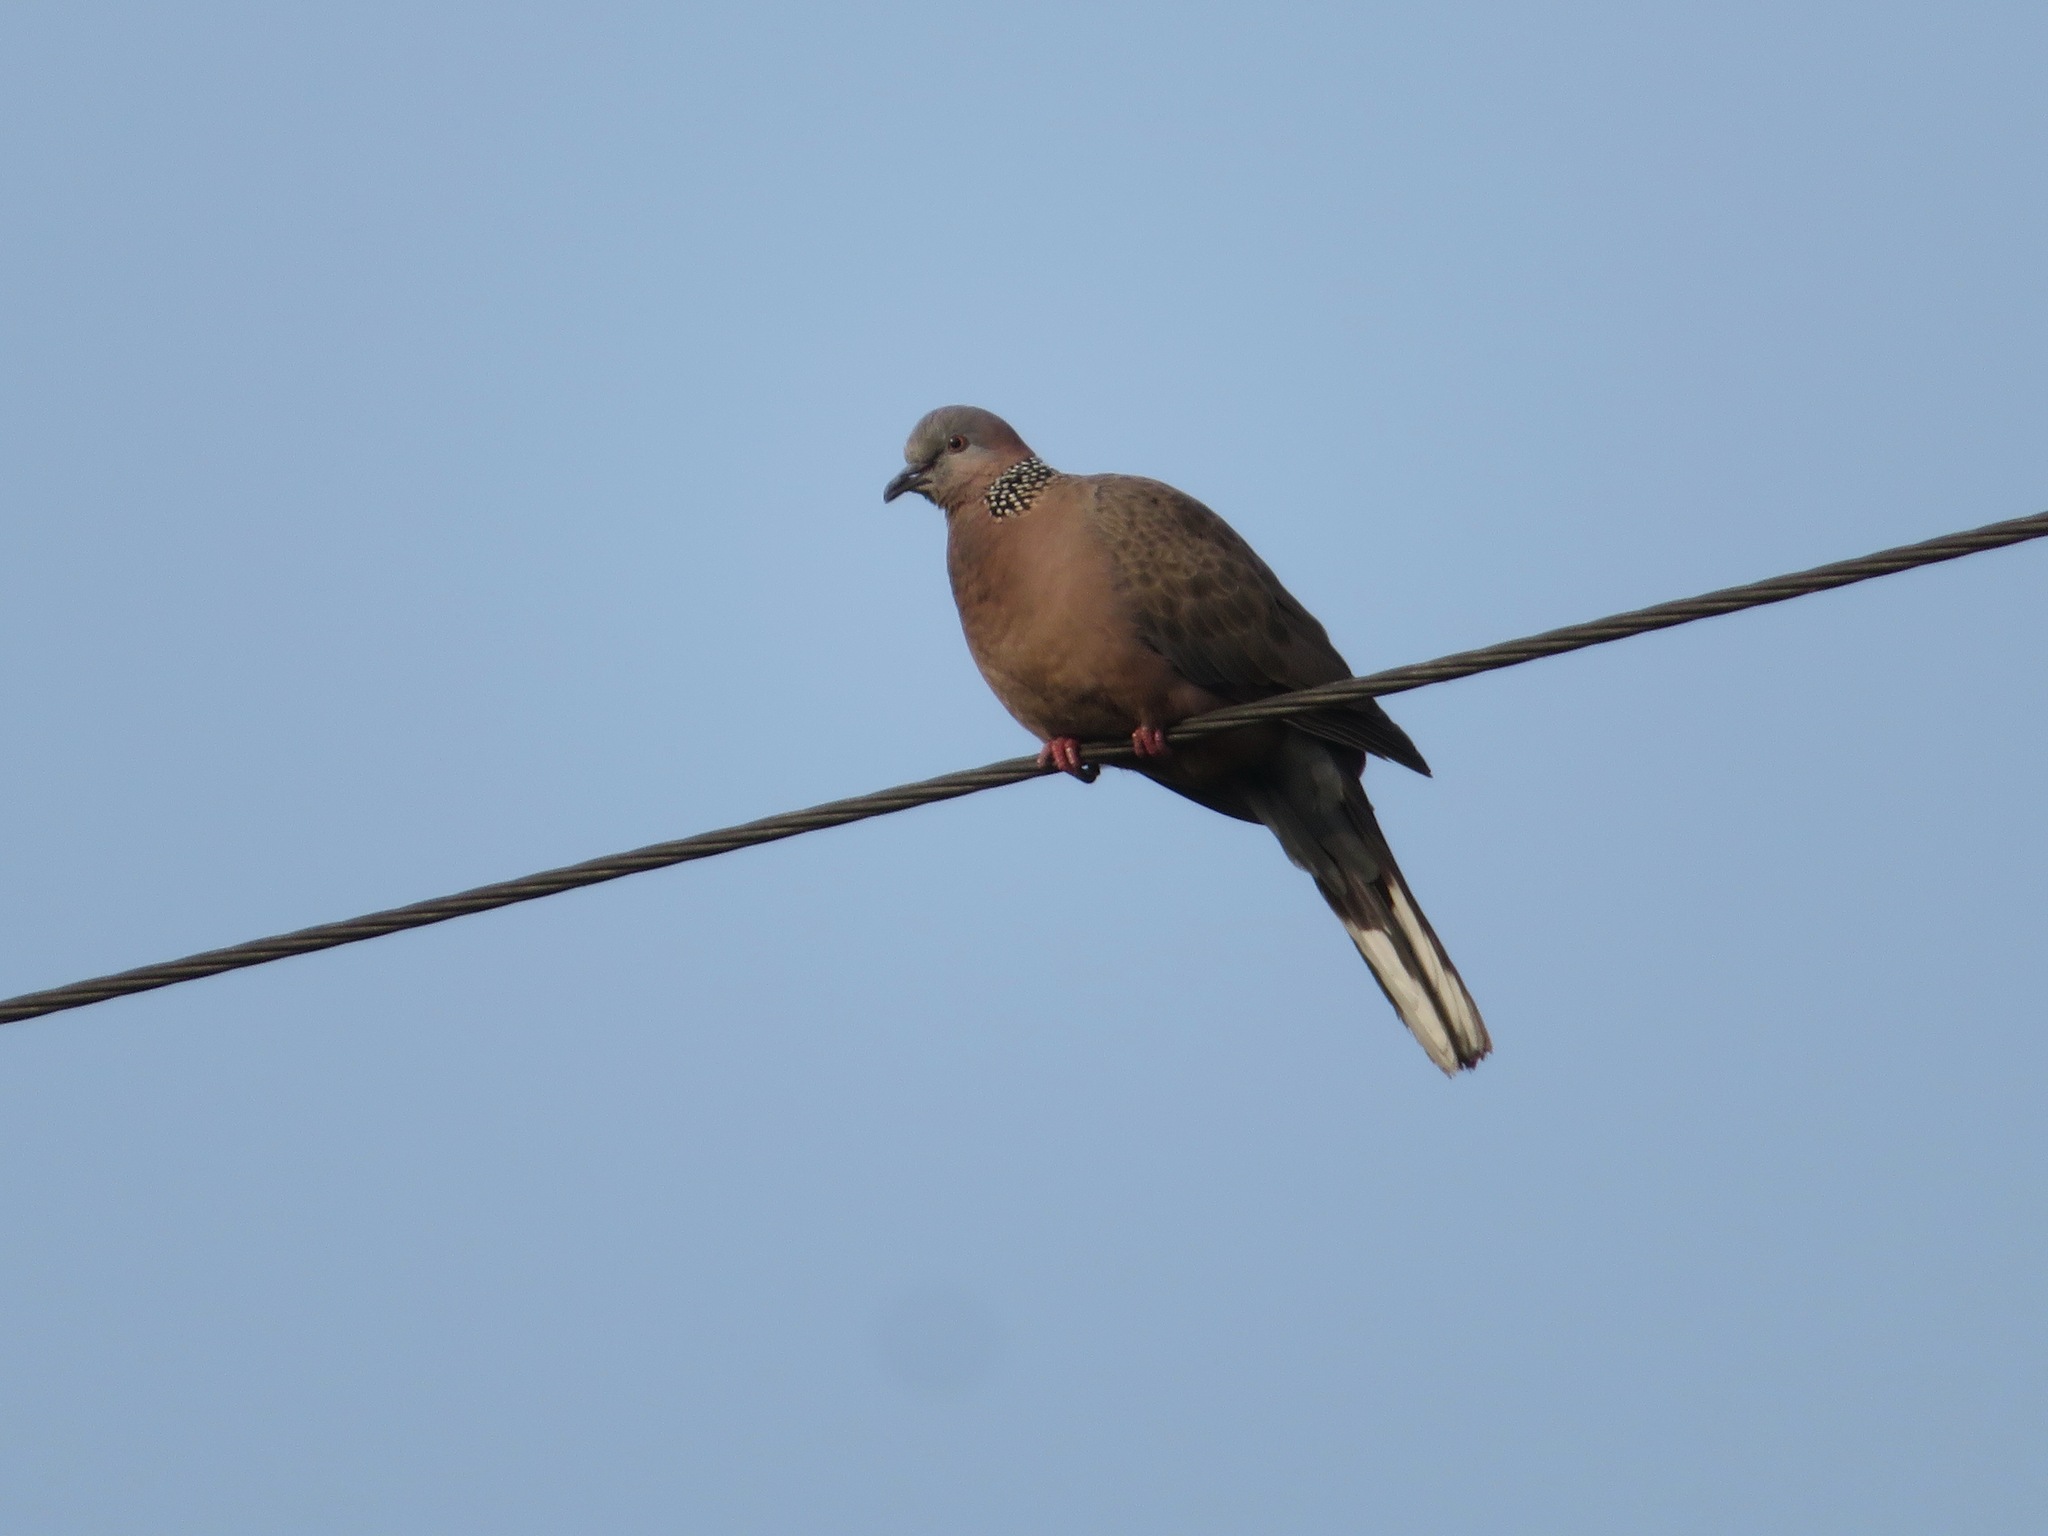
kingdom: Animalia
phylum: Chordata
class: Aves
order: Columbiformes
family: Columbidae
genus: Spilopelia
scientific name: Spilopelia chinensis
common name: Spotted dove
